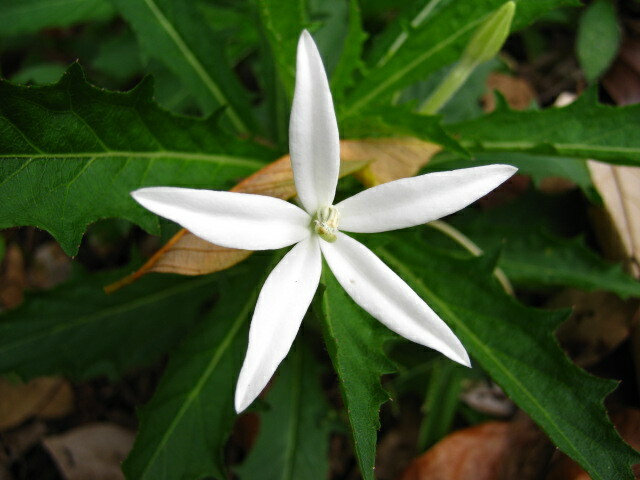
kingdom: Plantae
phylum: Tracheophyta
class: Magnoliopsida
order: Asterales
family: Campanulaceae
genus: Hippobroma
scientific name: Hippobroma longiflora
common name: Madamfate
